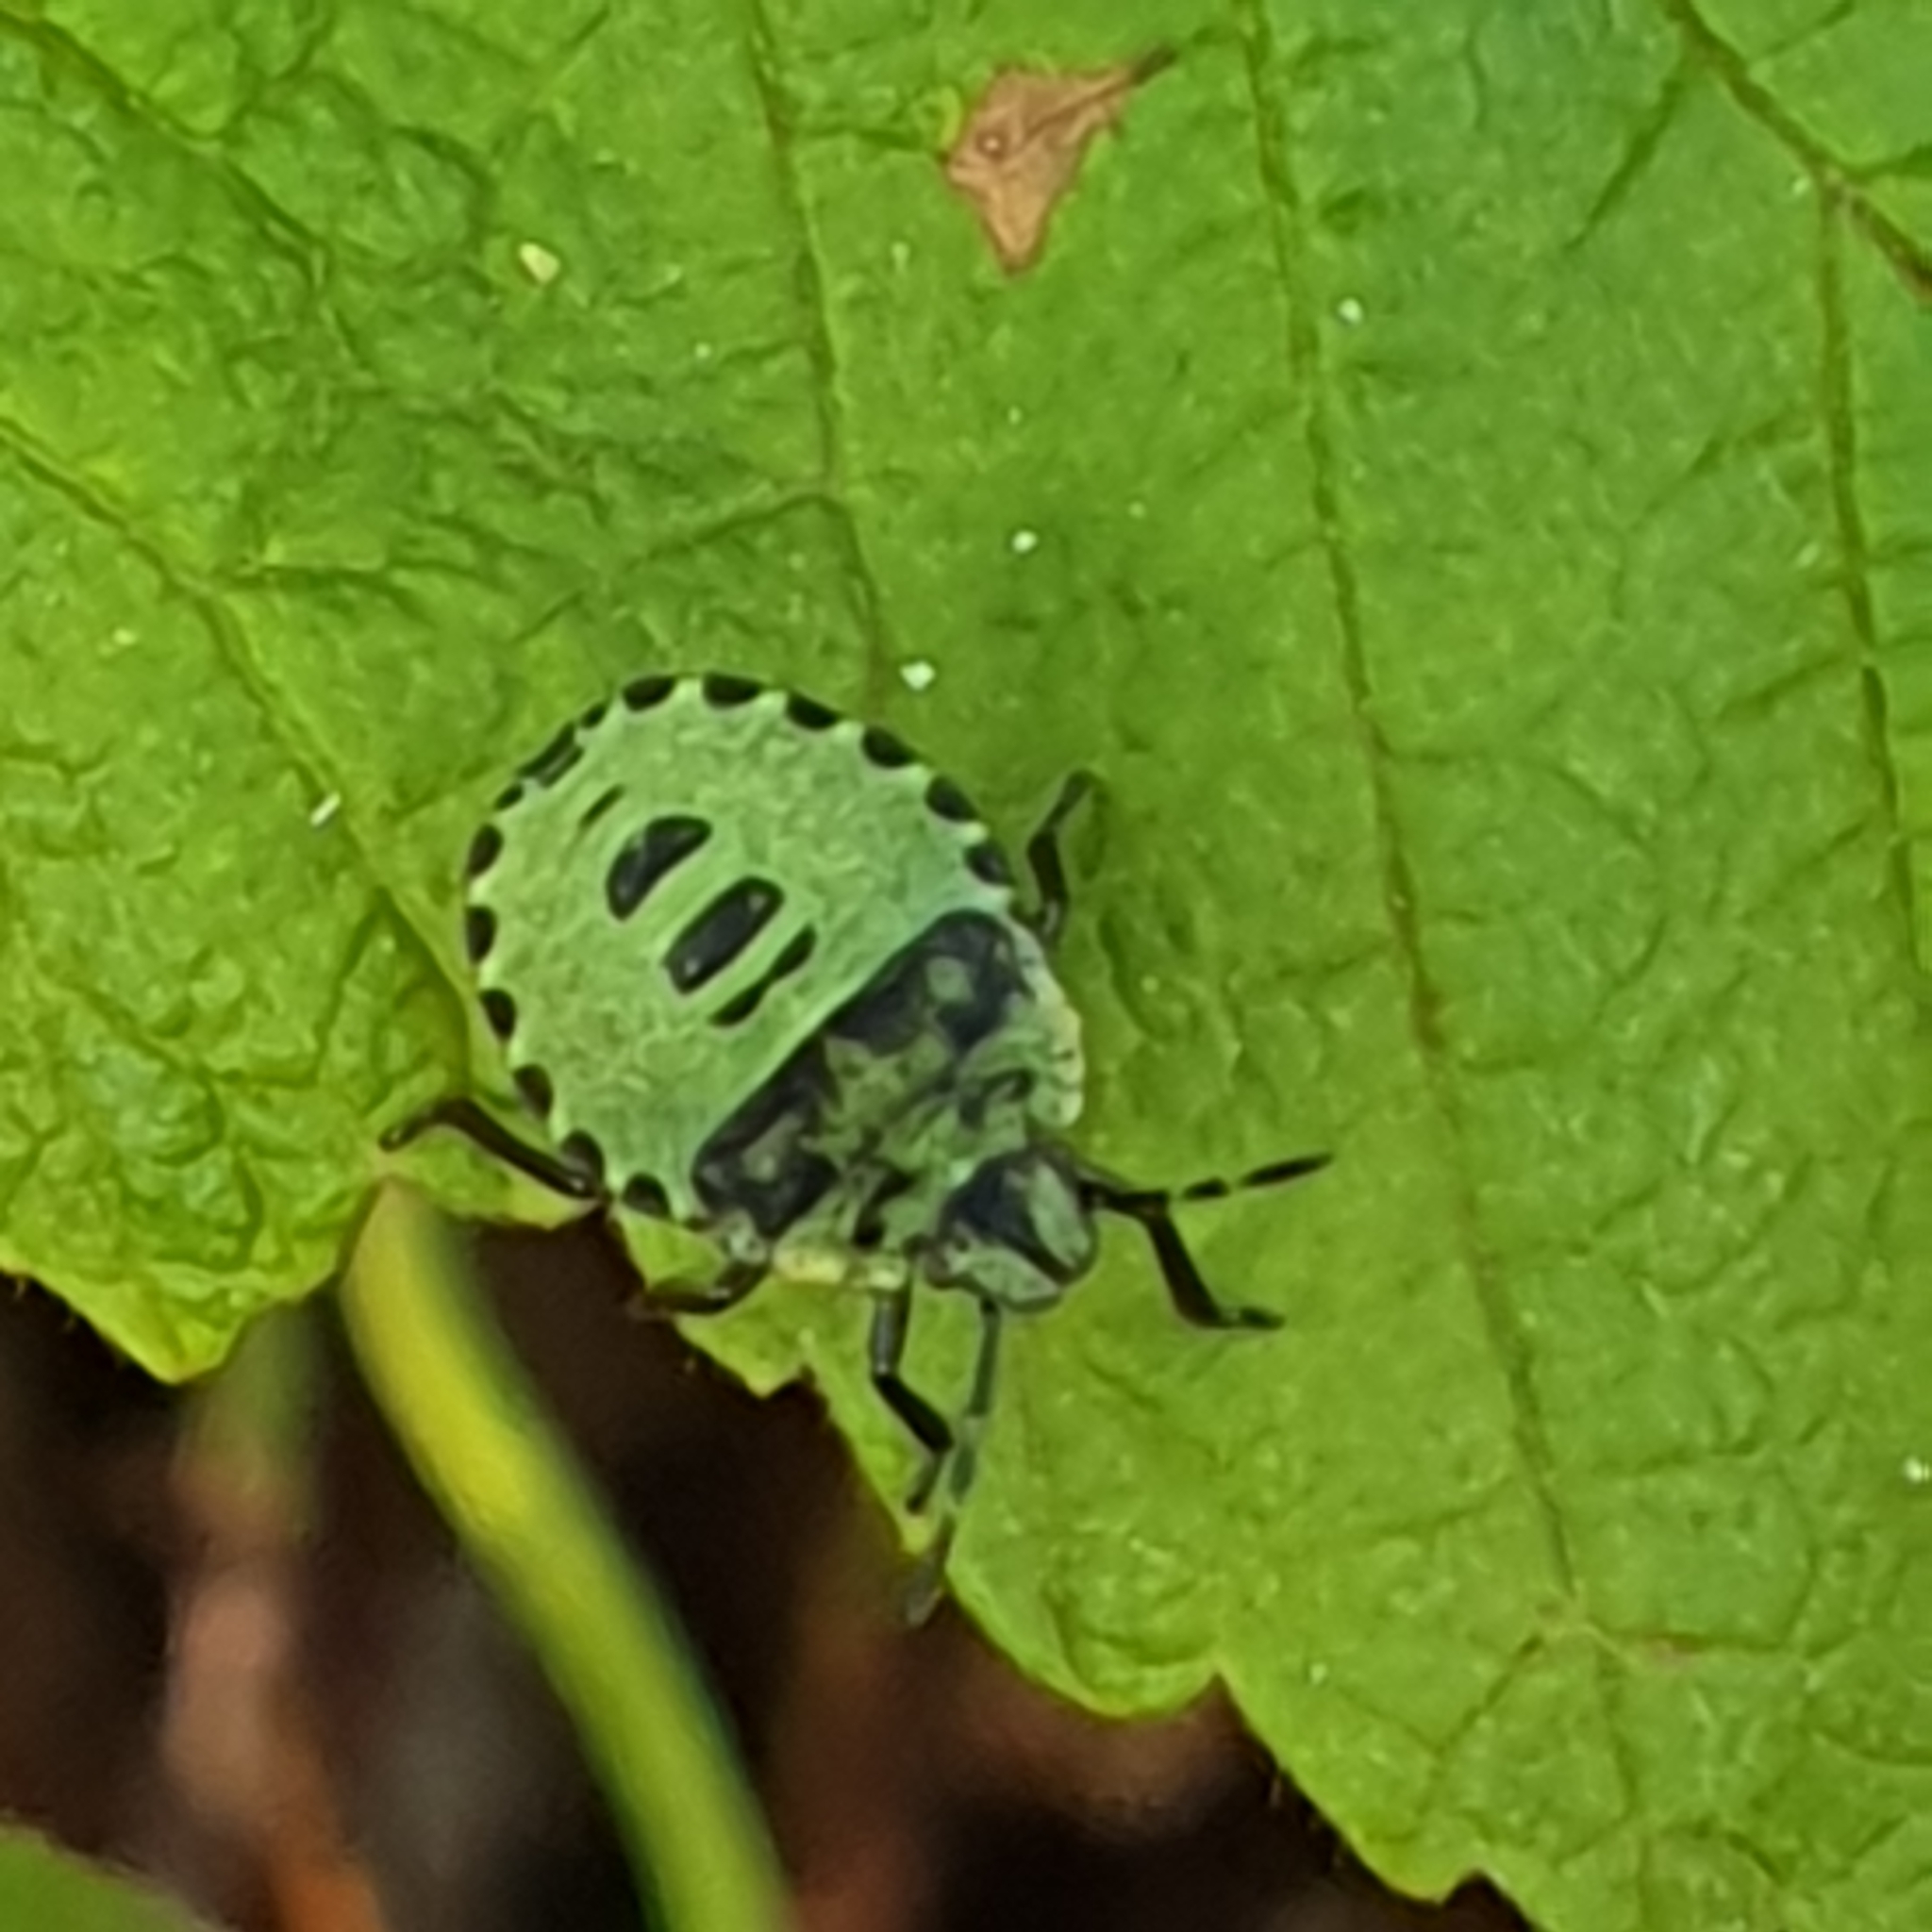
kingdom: Animalia
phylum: Arthropoda
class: Insecta
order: Hemiptera
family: Pentatomidae
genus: Palomena
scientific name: Palomena prasina
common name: Green shieldbug
